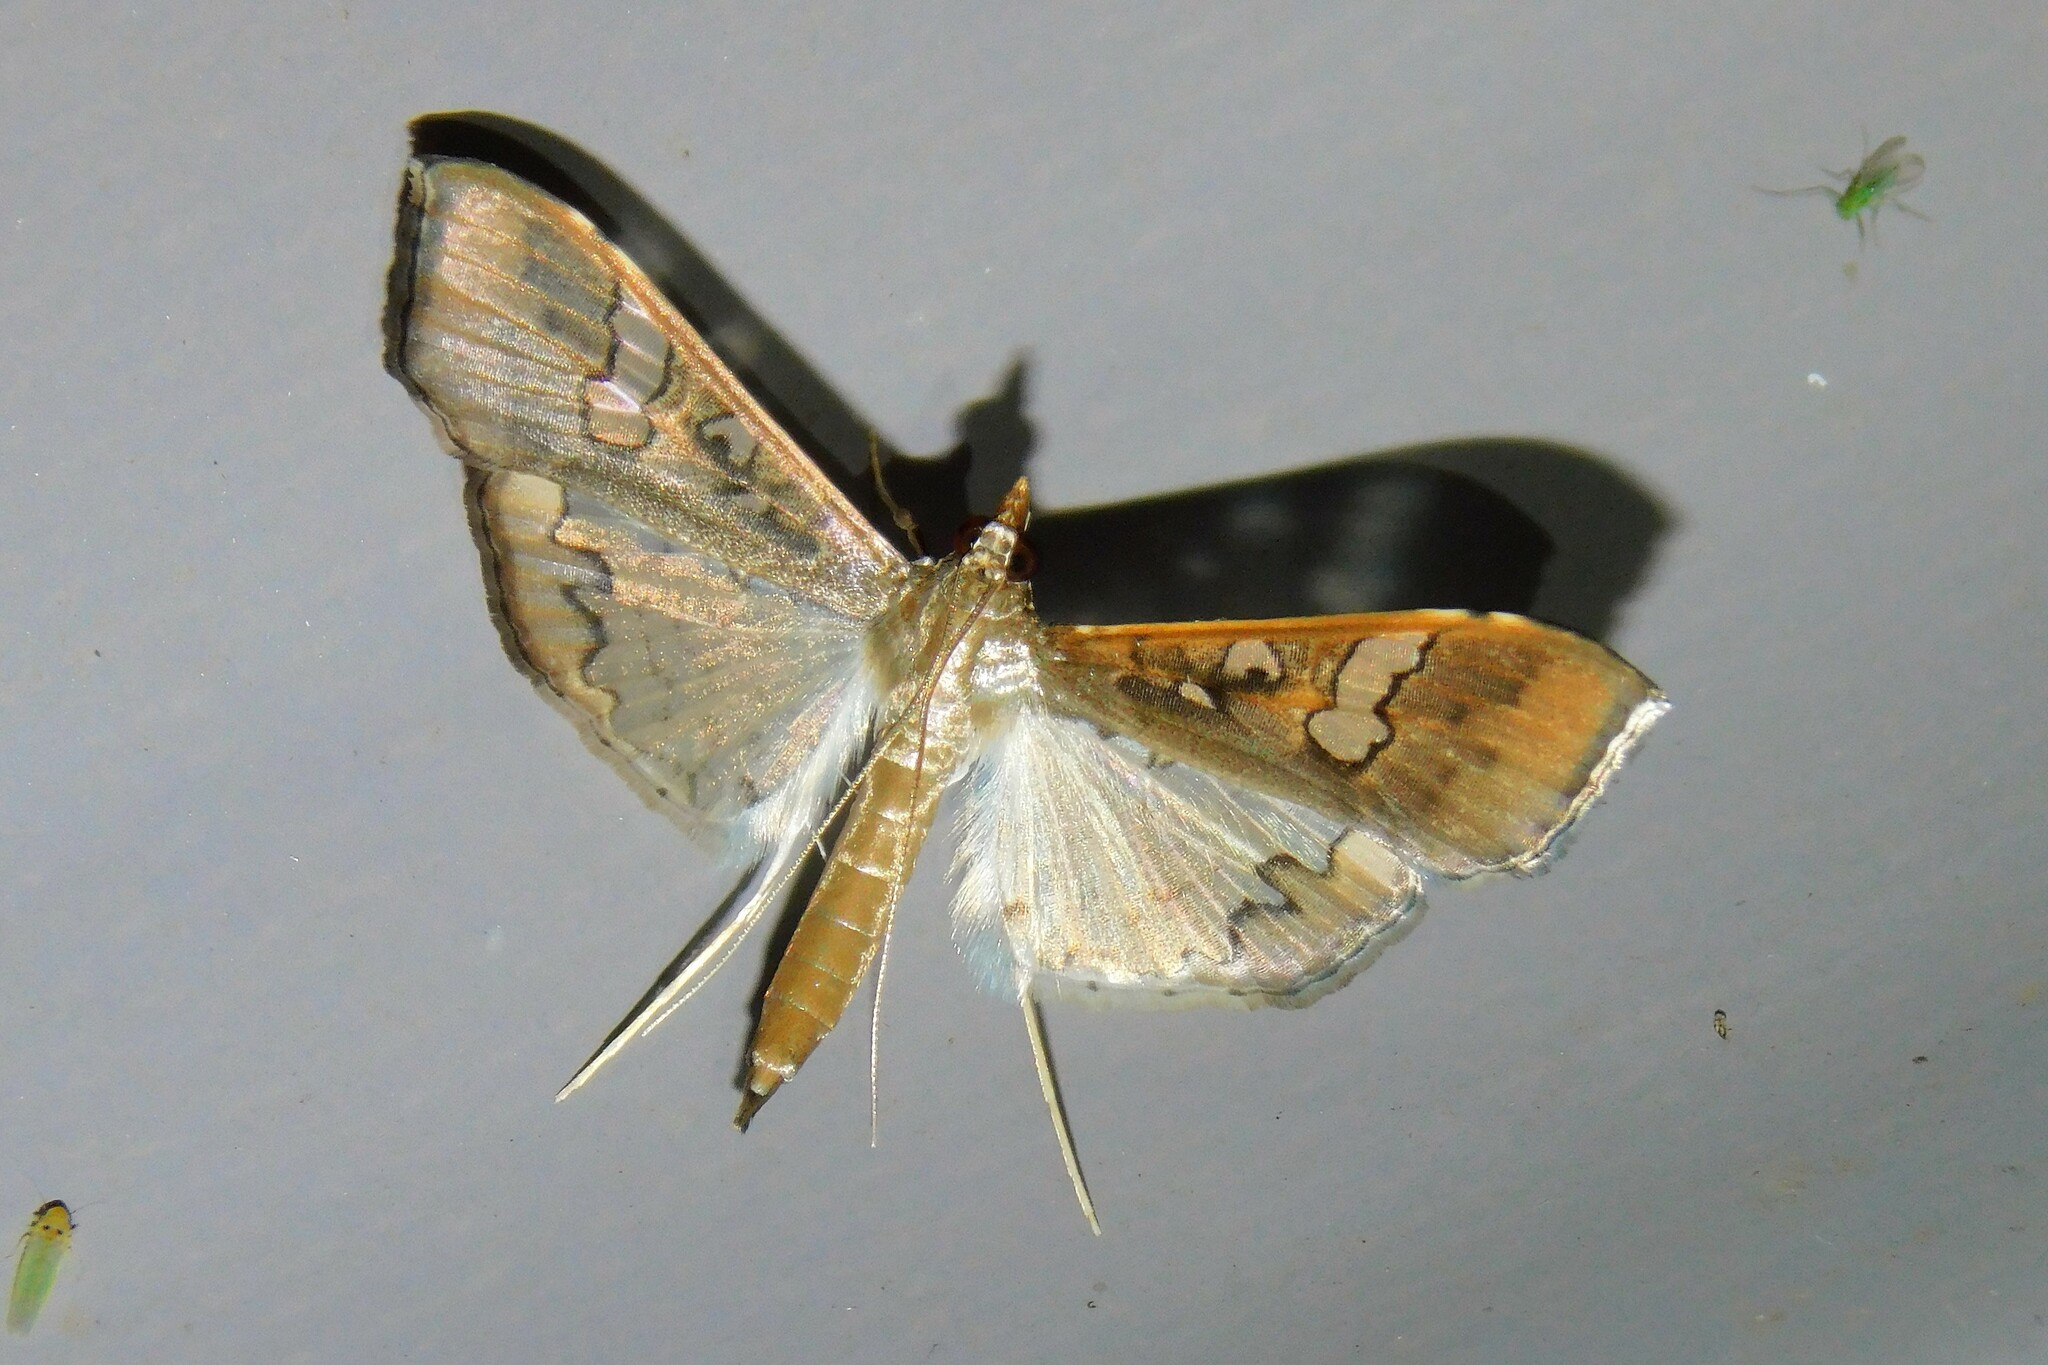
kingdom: Animalia
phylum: Arthropoda
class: Insecta
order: Lepidoptera
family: Crambidae
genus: Maruca
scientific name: Maruca vitrata
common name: Maruca pod borer
